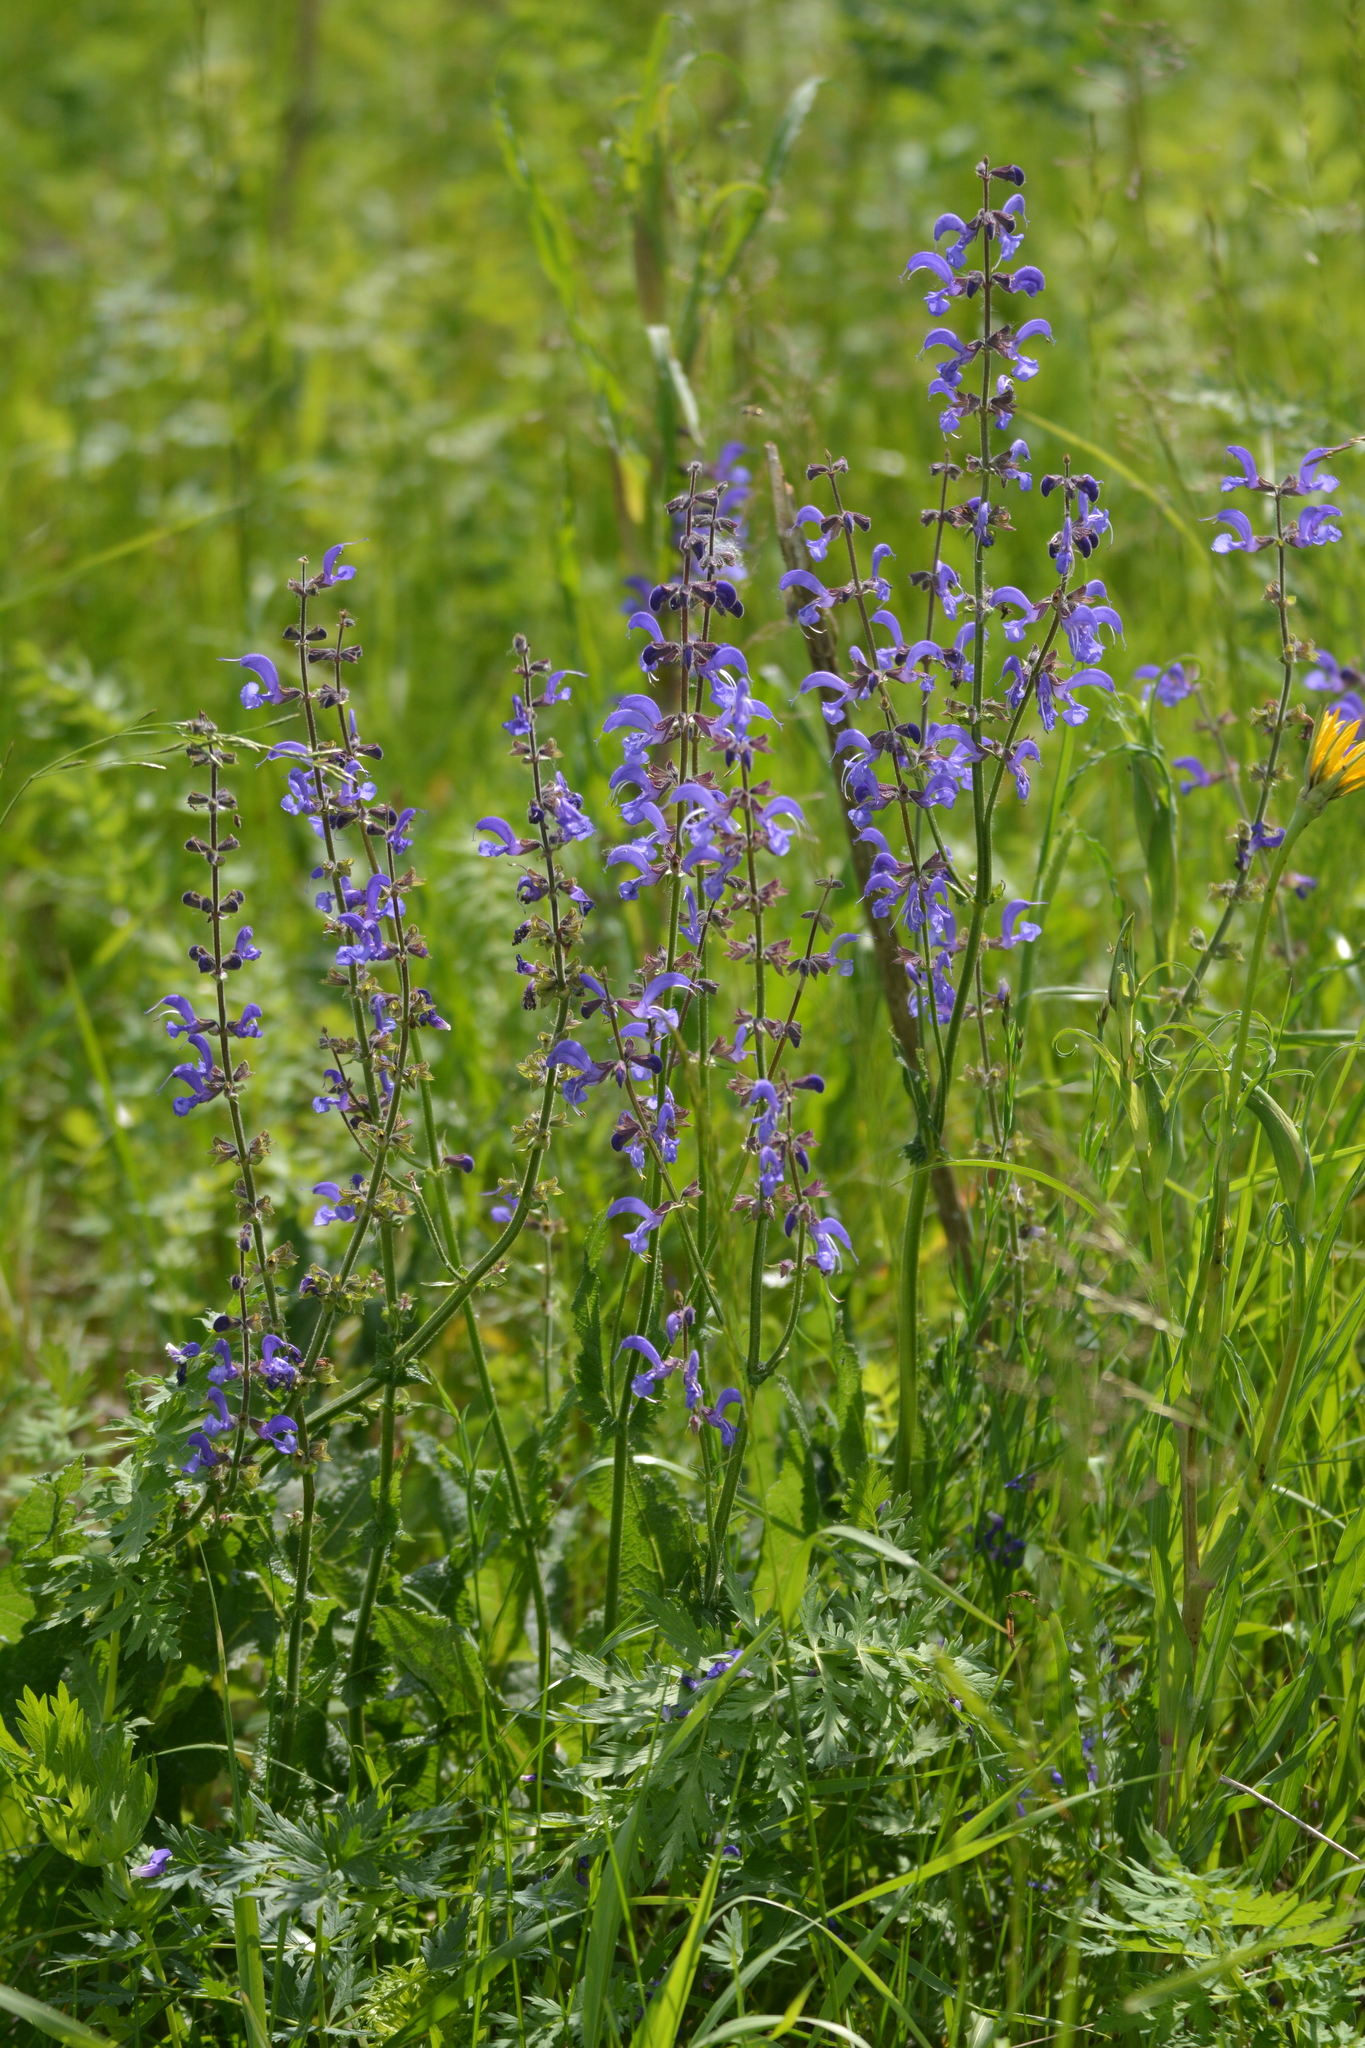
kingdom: Plantae
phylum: Tracheophyta
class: Magnoliopsida
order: Lamiales
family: Lamiaceae
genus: Salvia
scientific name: Salvia pratensis
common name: Meadow sage
